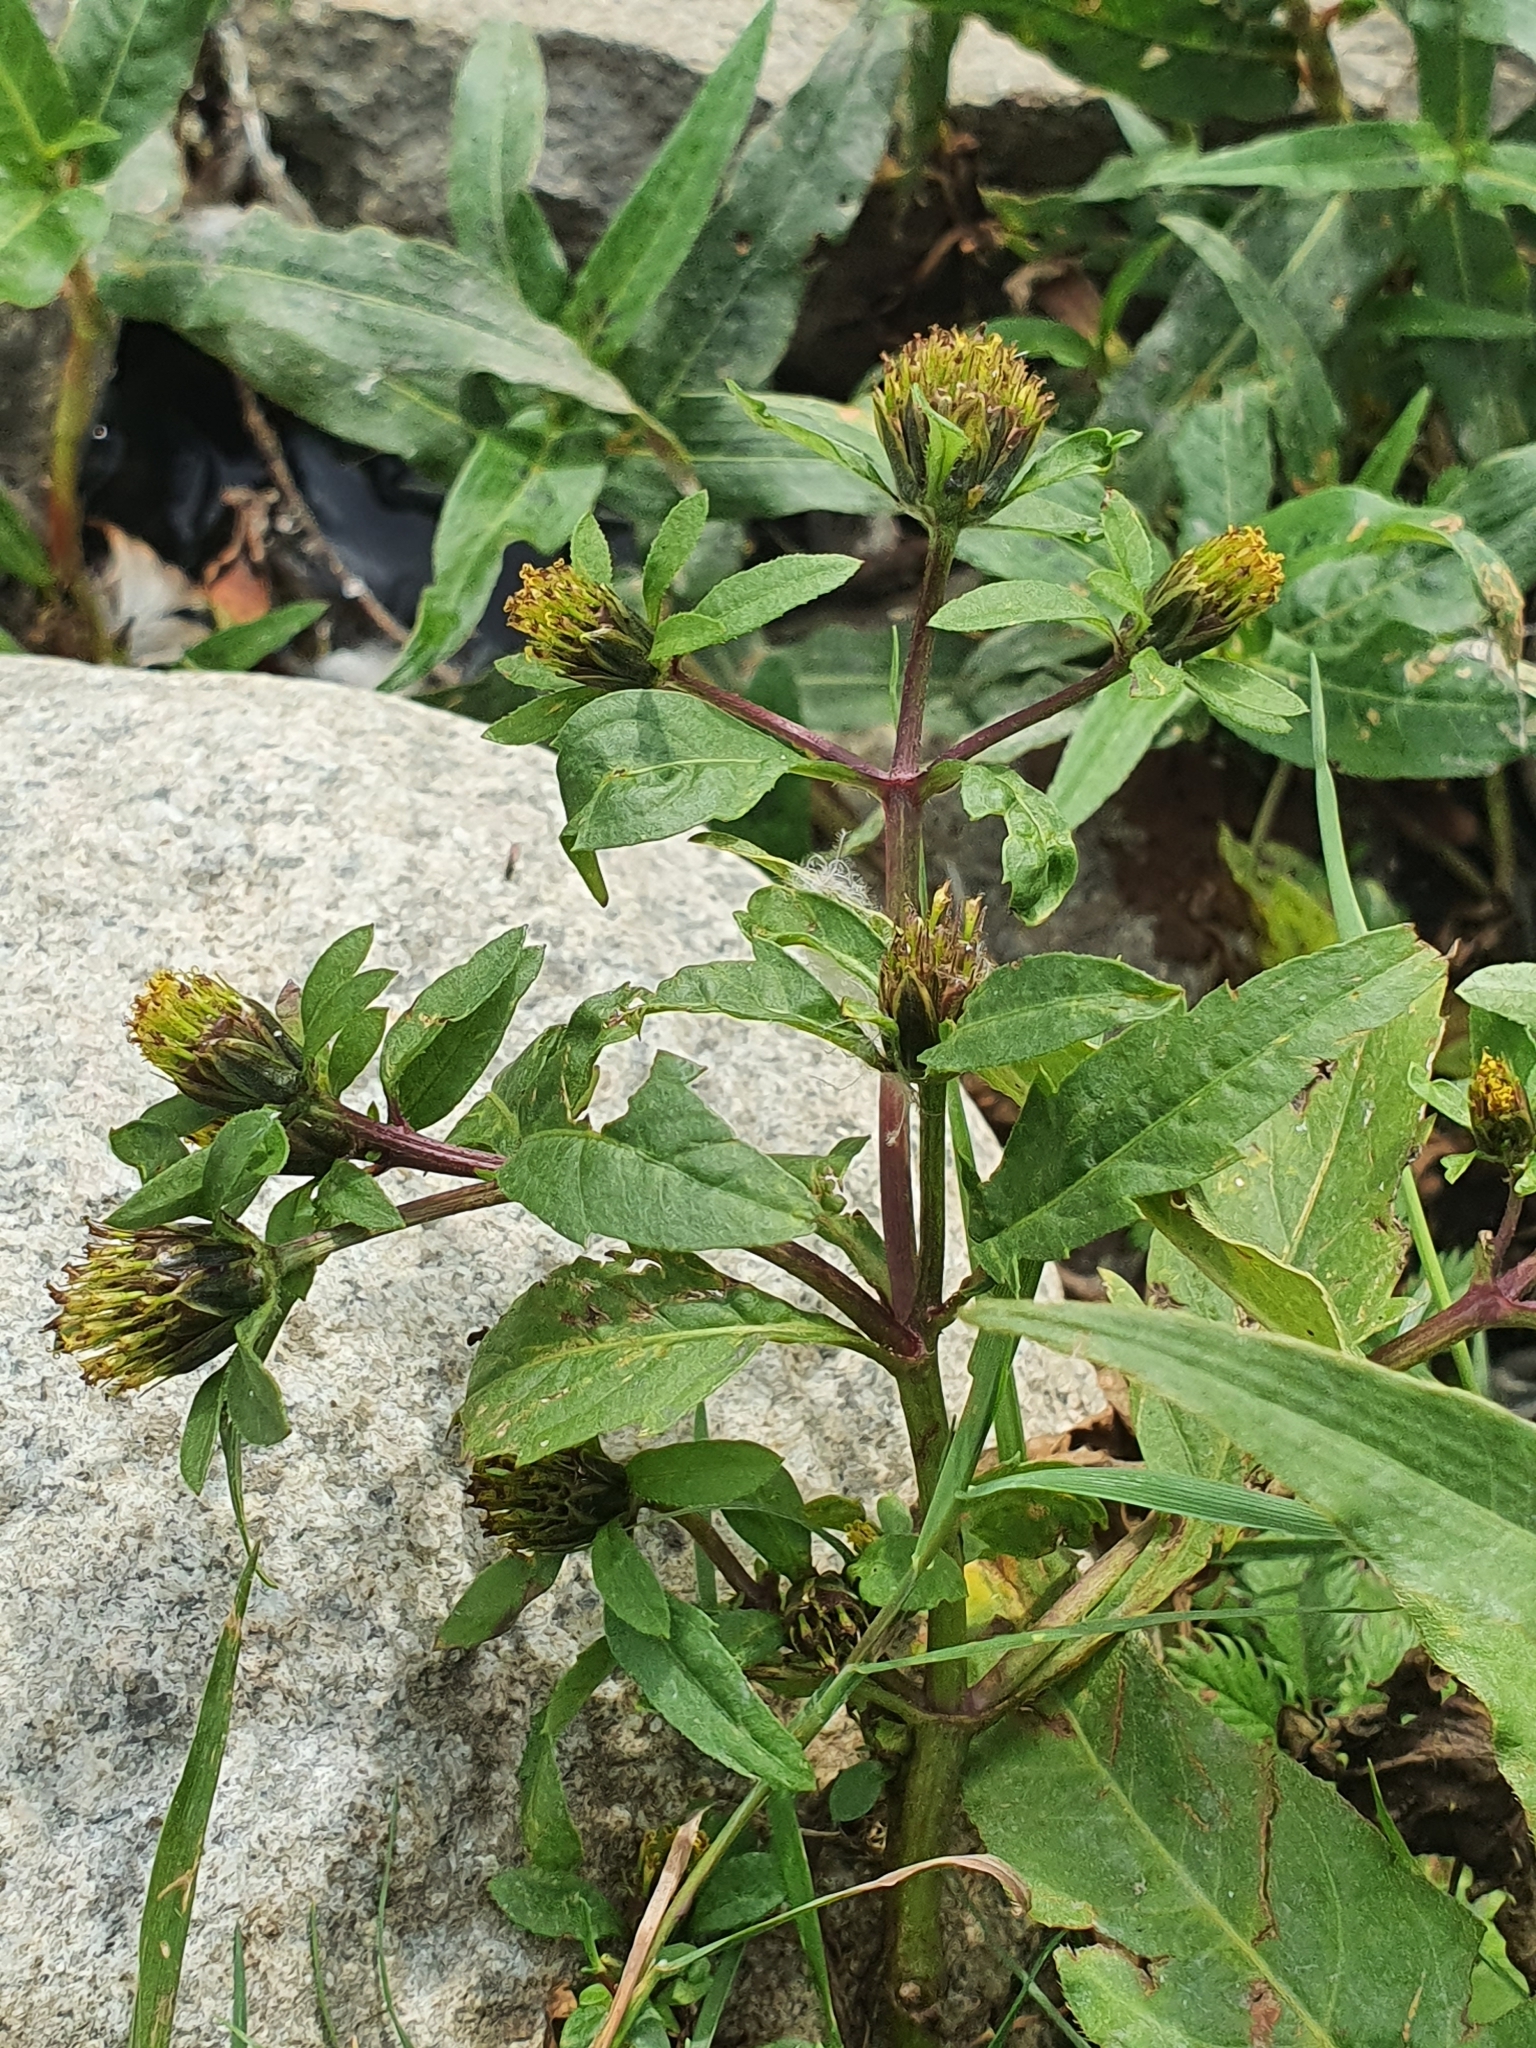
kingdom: Plantae
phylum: Tracheophyta
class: Magnoliopsida
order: Asterales
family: Asteraceae
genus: Bidens
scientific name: Bidens tripartita
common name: Trifid bur-marigold
